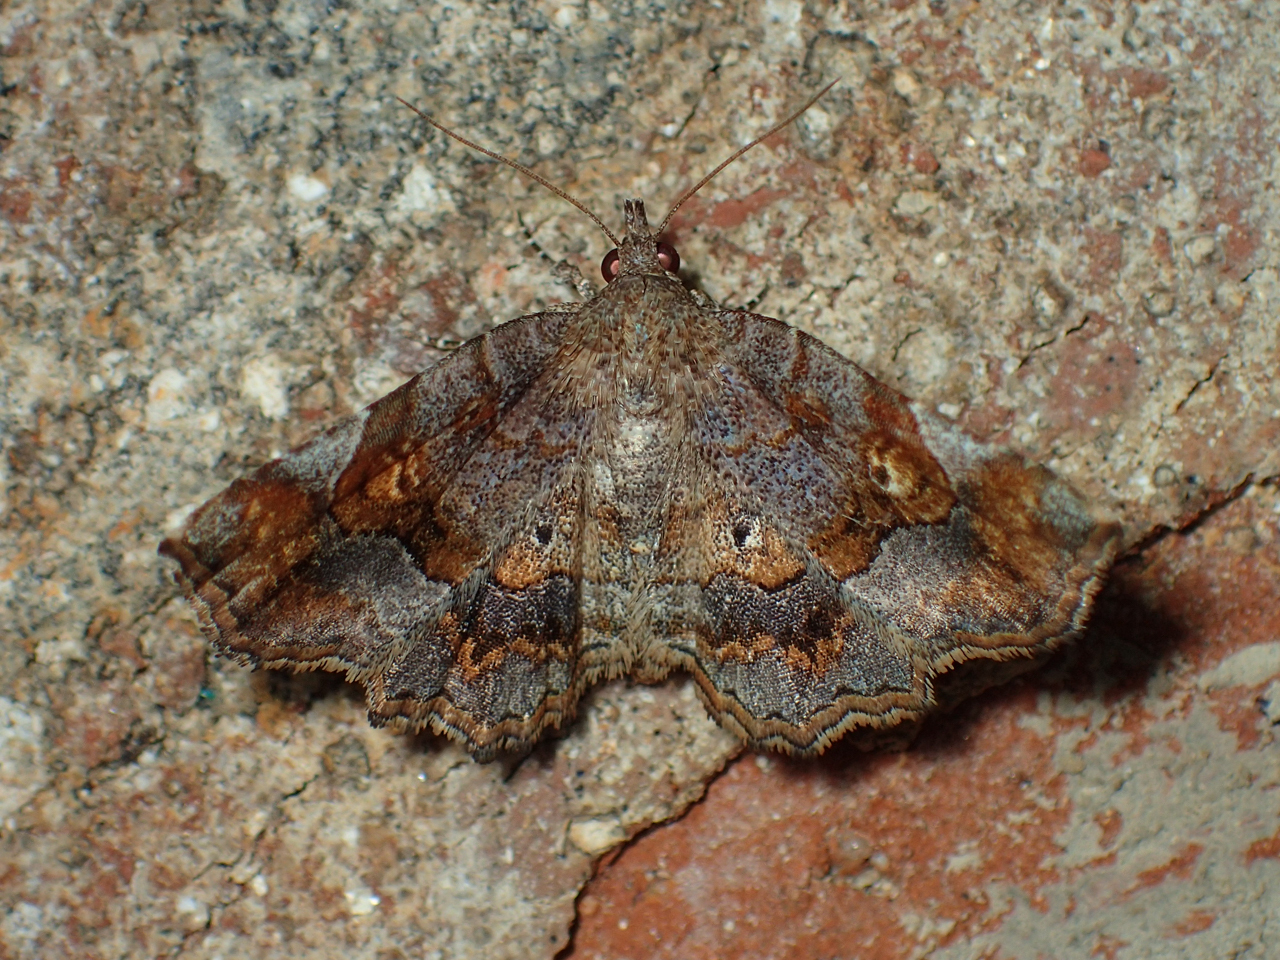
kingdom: Animalia
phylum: Arthropoda
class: Insecta
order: Lepidoptera
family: Erebidae
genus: Pangrapta
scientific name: Pangrapta decoralis
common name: Decorated owlet
